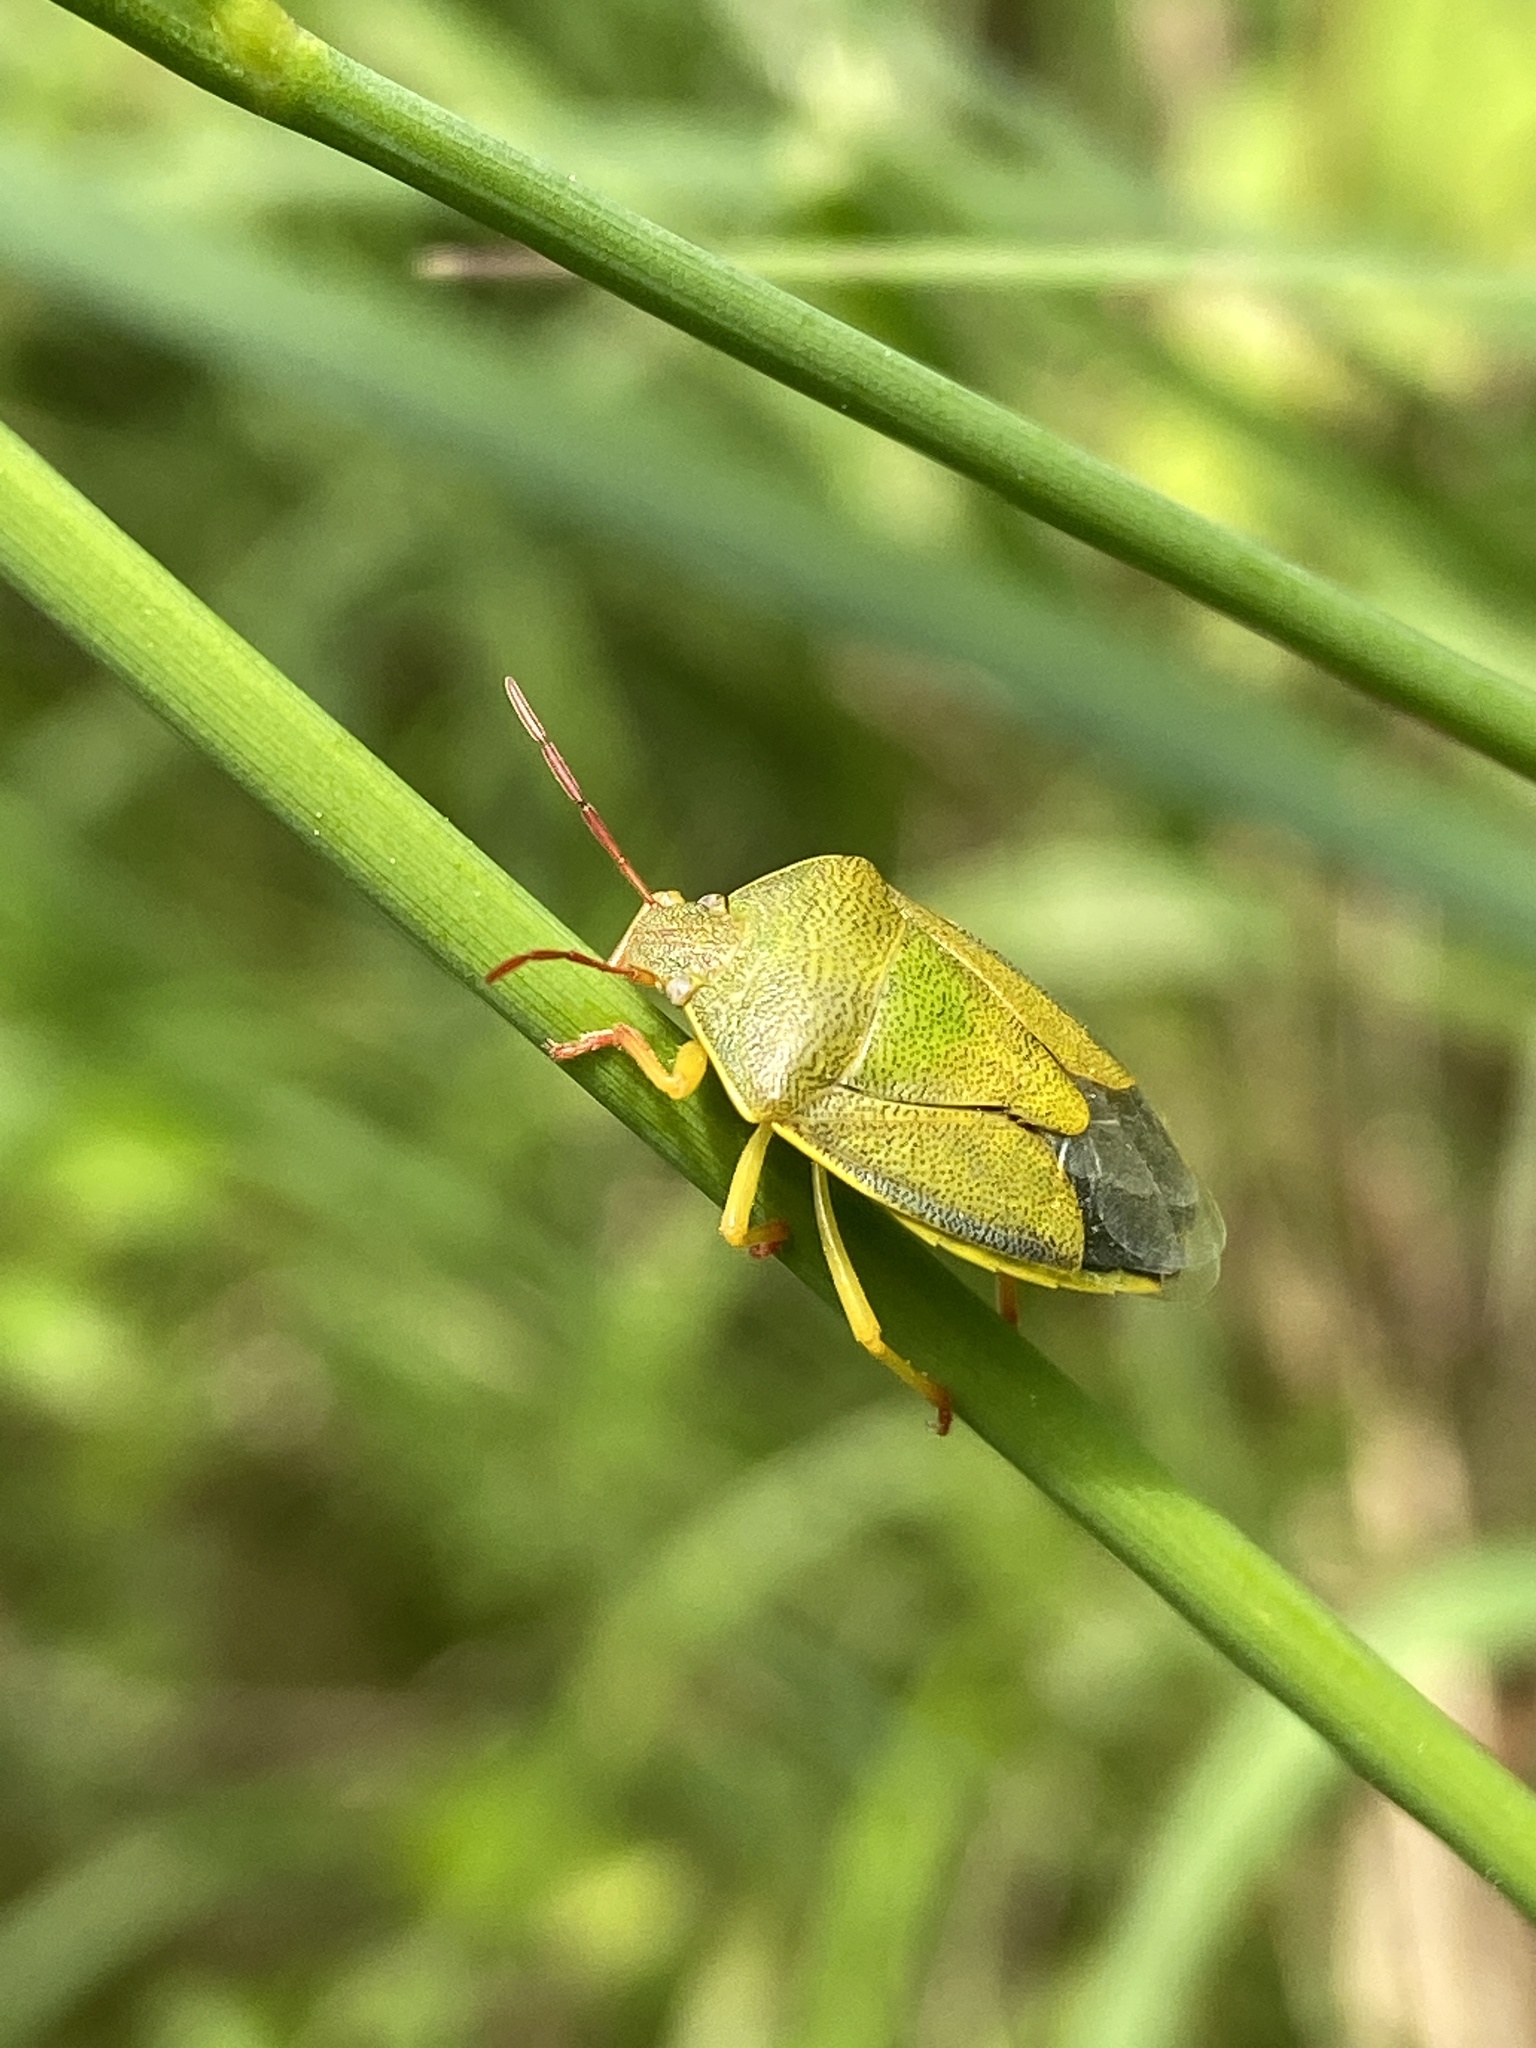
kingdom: Animalia
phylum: Arthropoda
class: Insecta
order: Hemiptera
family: Pentatomidae
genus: Piezodorus
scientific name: Piezodorus lituratus
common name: Stink bug
